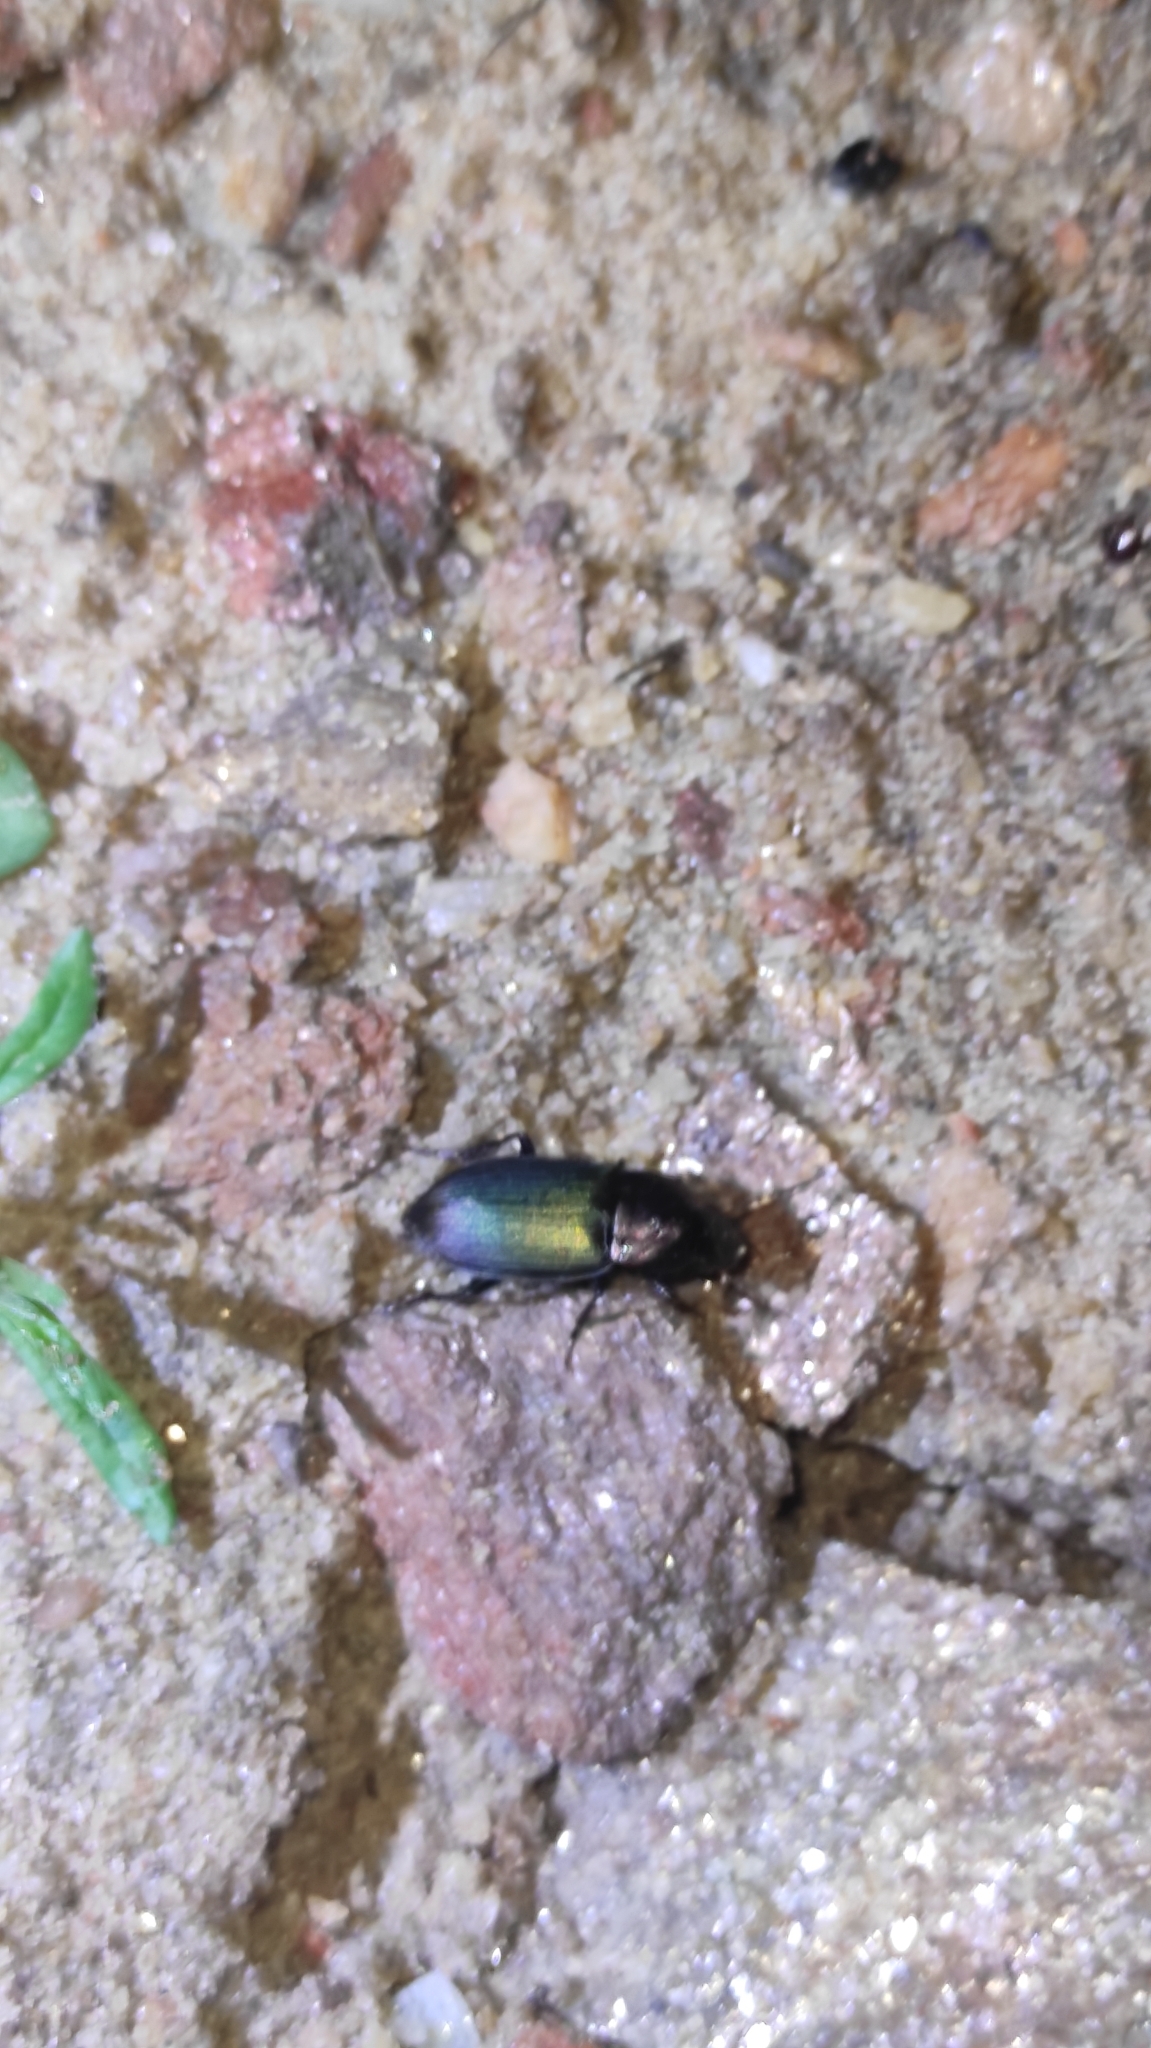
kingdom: Animalia
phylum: Arthropoda
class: Insecta
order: Coleoptera
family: Carabidae
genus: Neoaulacoryssus
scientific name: Neoaulacoryssus speciosus
